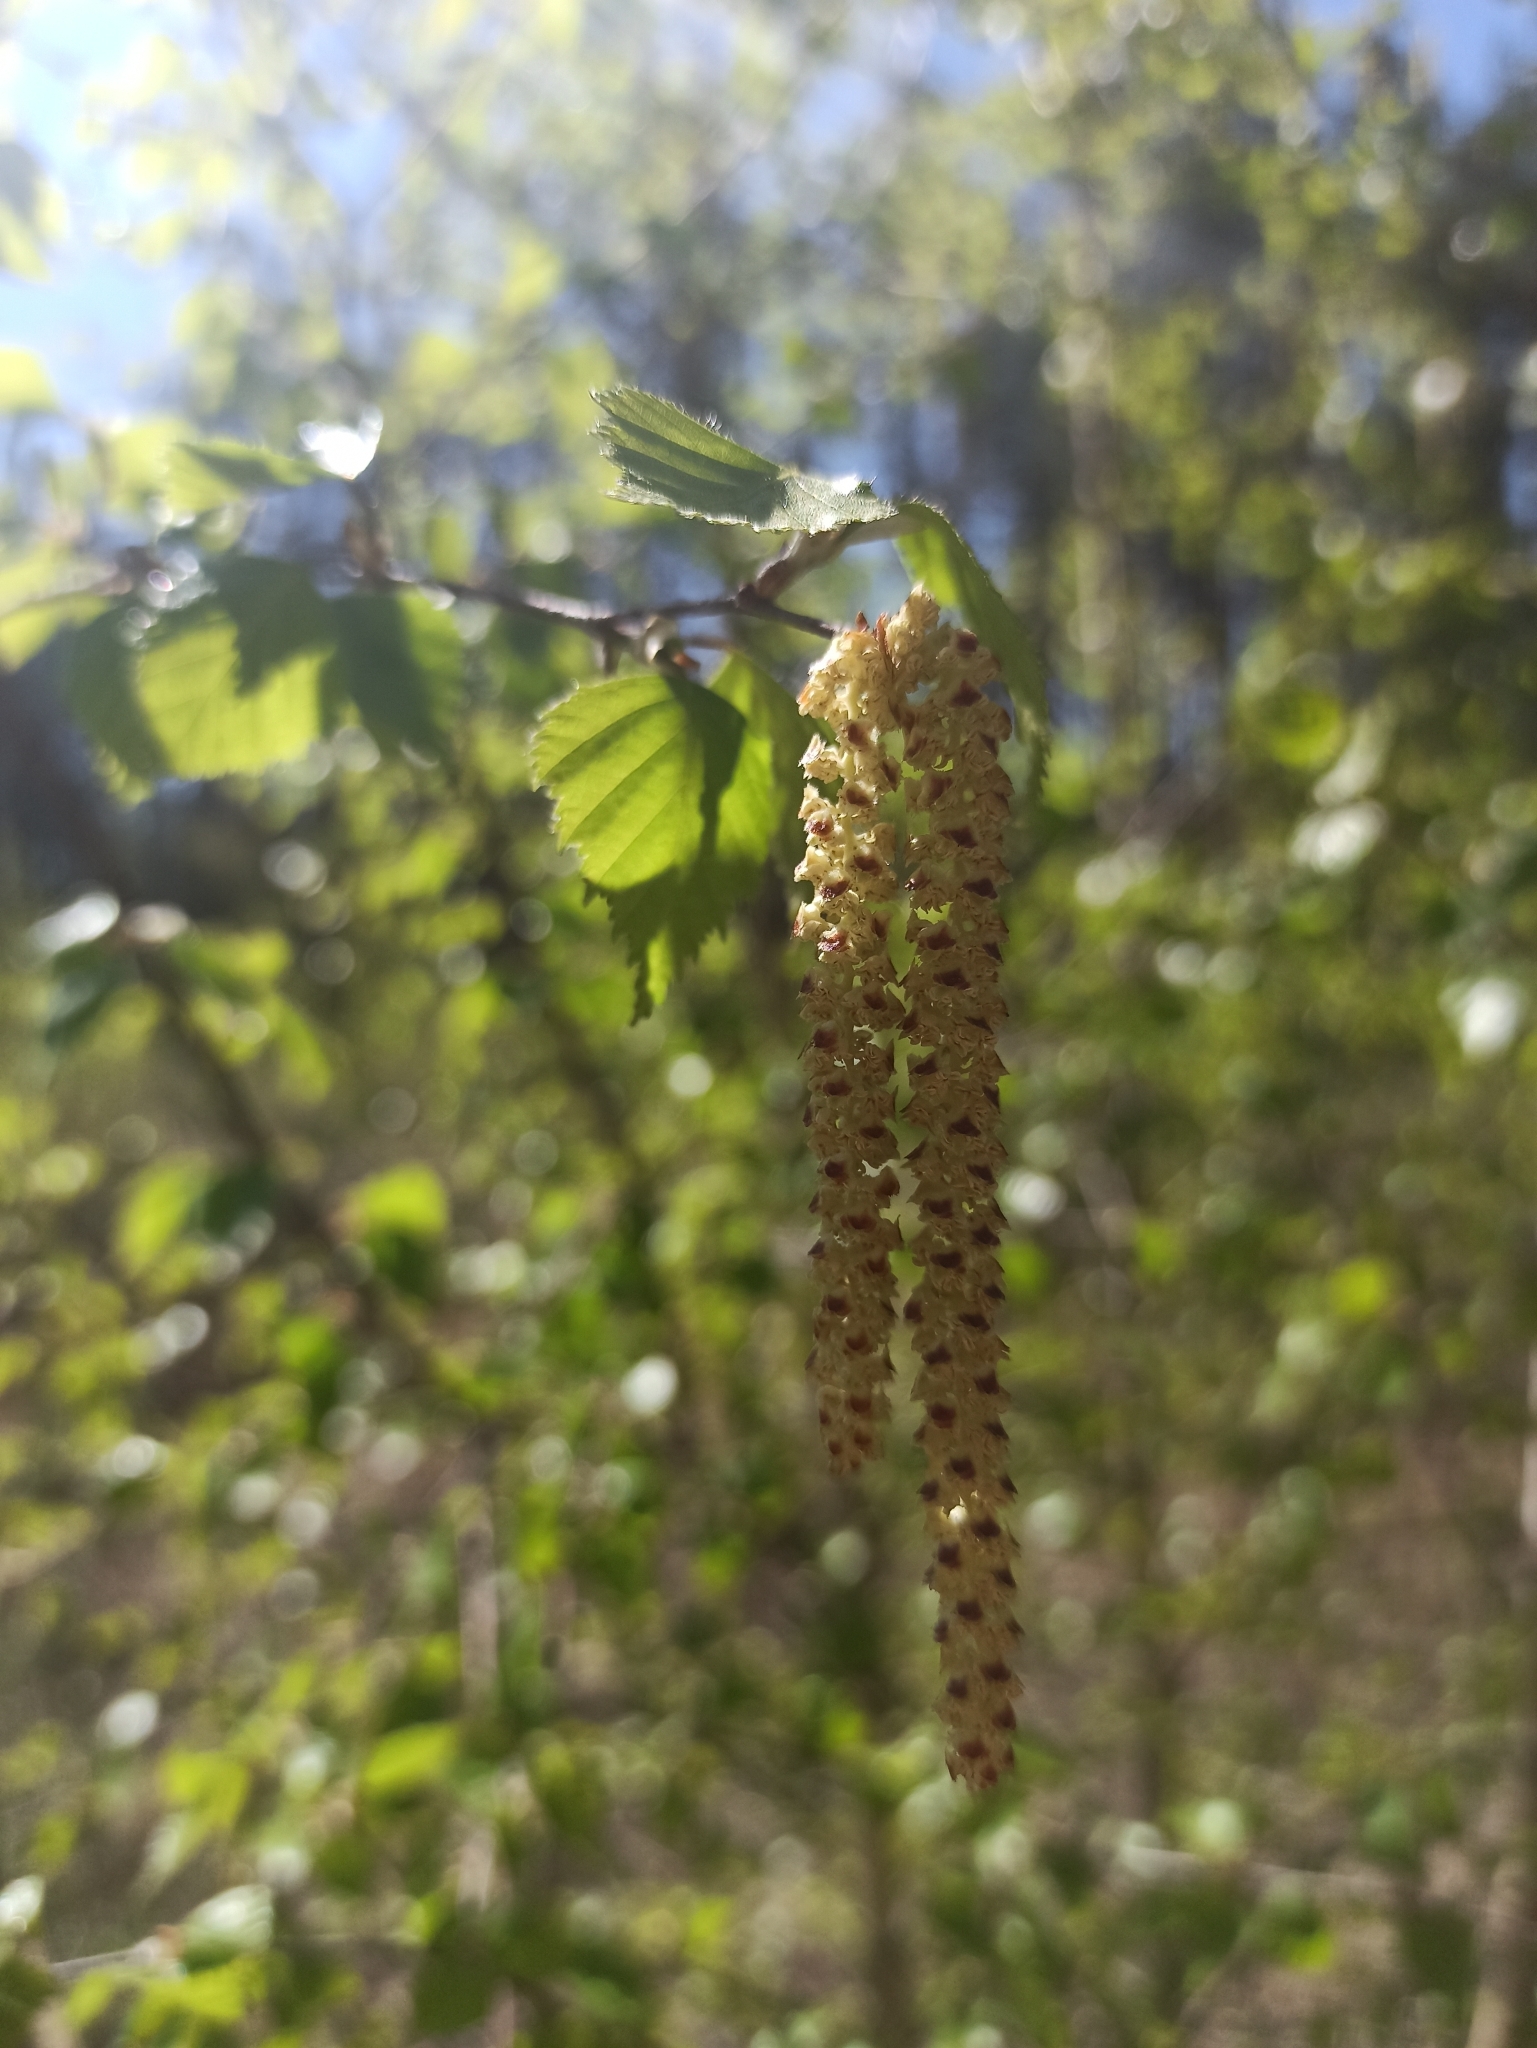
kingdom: Plantae
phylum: Tracheophyta
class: Magnoliopsida
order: Fagales
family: Betulaceae
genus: Betula
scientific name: Betula pendula
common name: Silver birch
